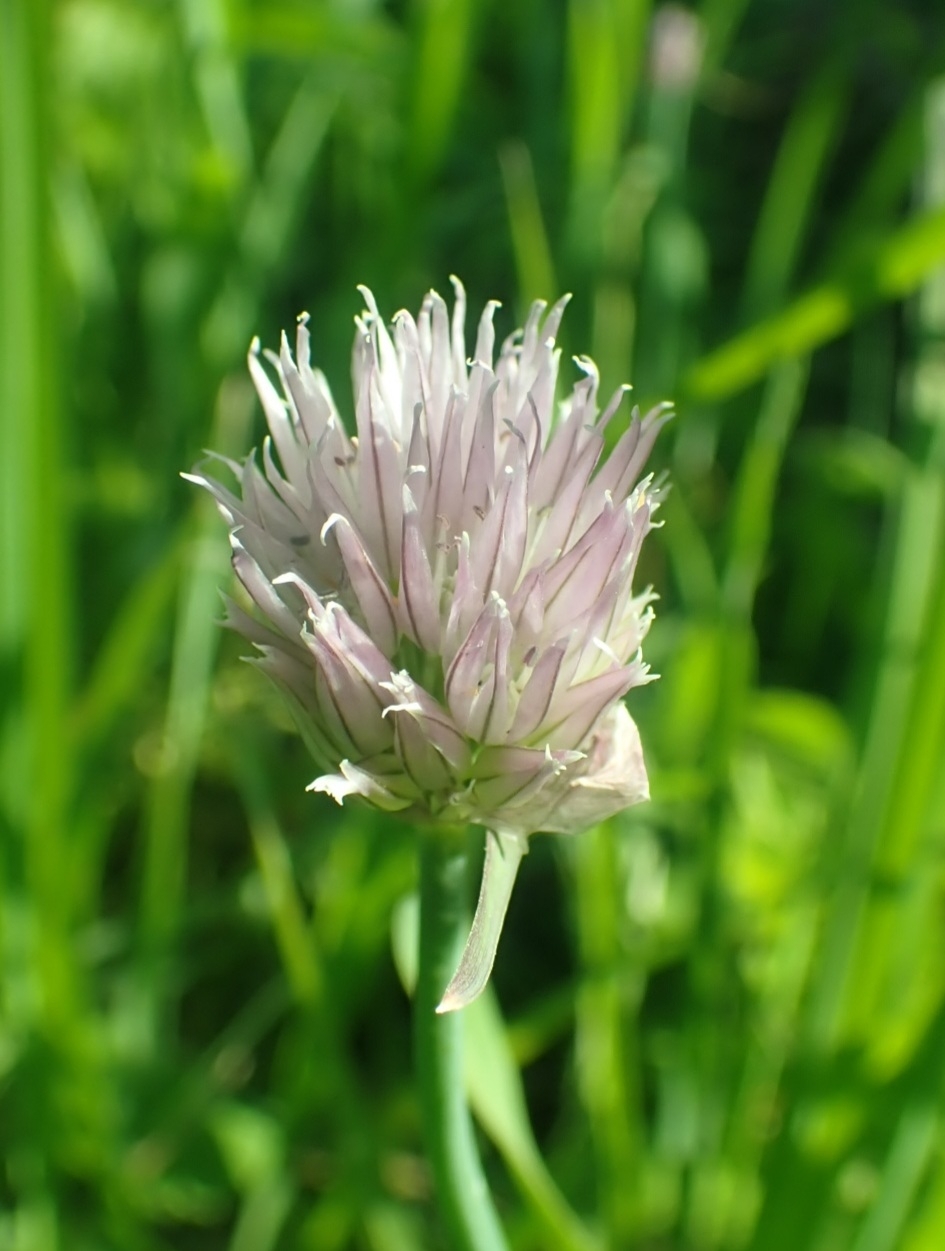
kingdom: Plantae
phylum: Tracheophyta
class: Liliopsida
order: Asparagales
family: Amaryllidaceae
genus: Allium
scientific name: Allium schoenoprasum
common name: Chives
